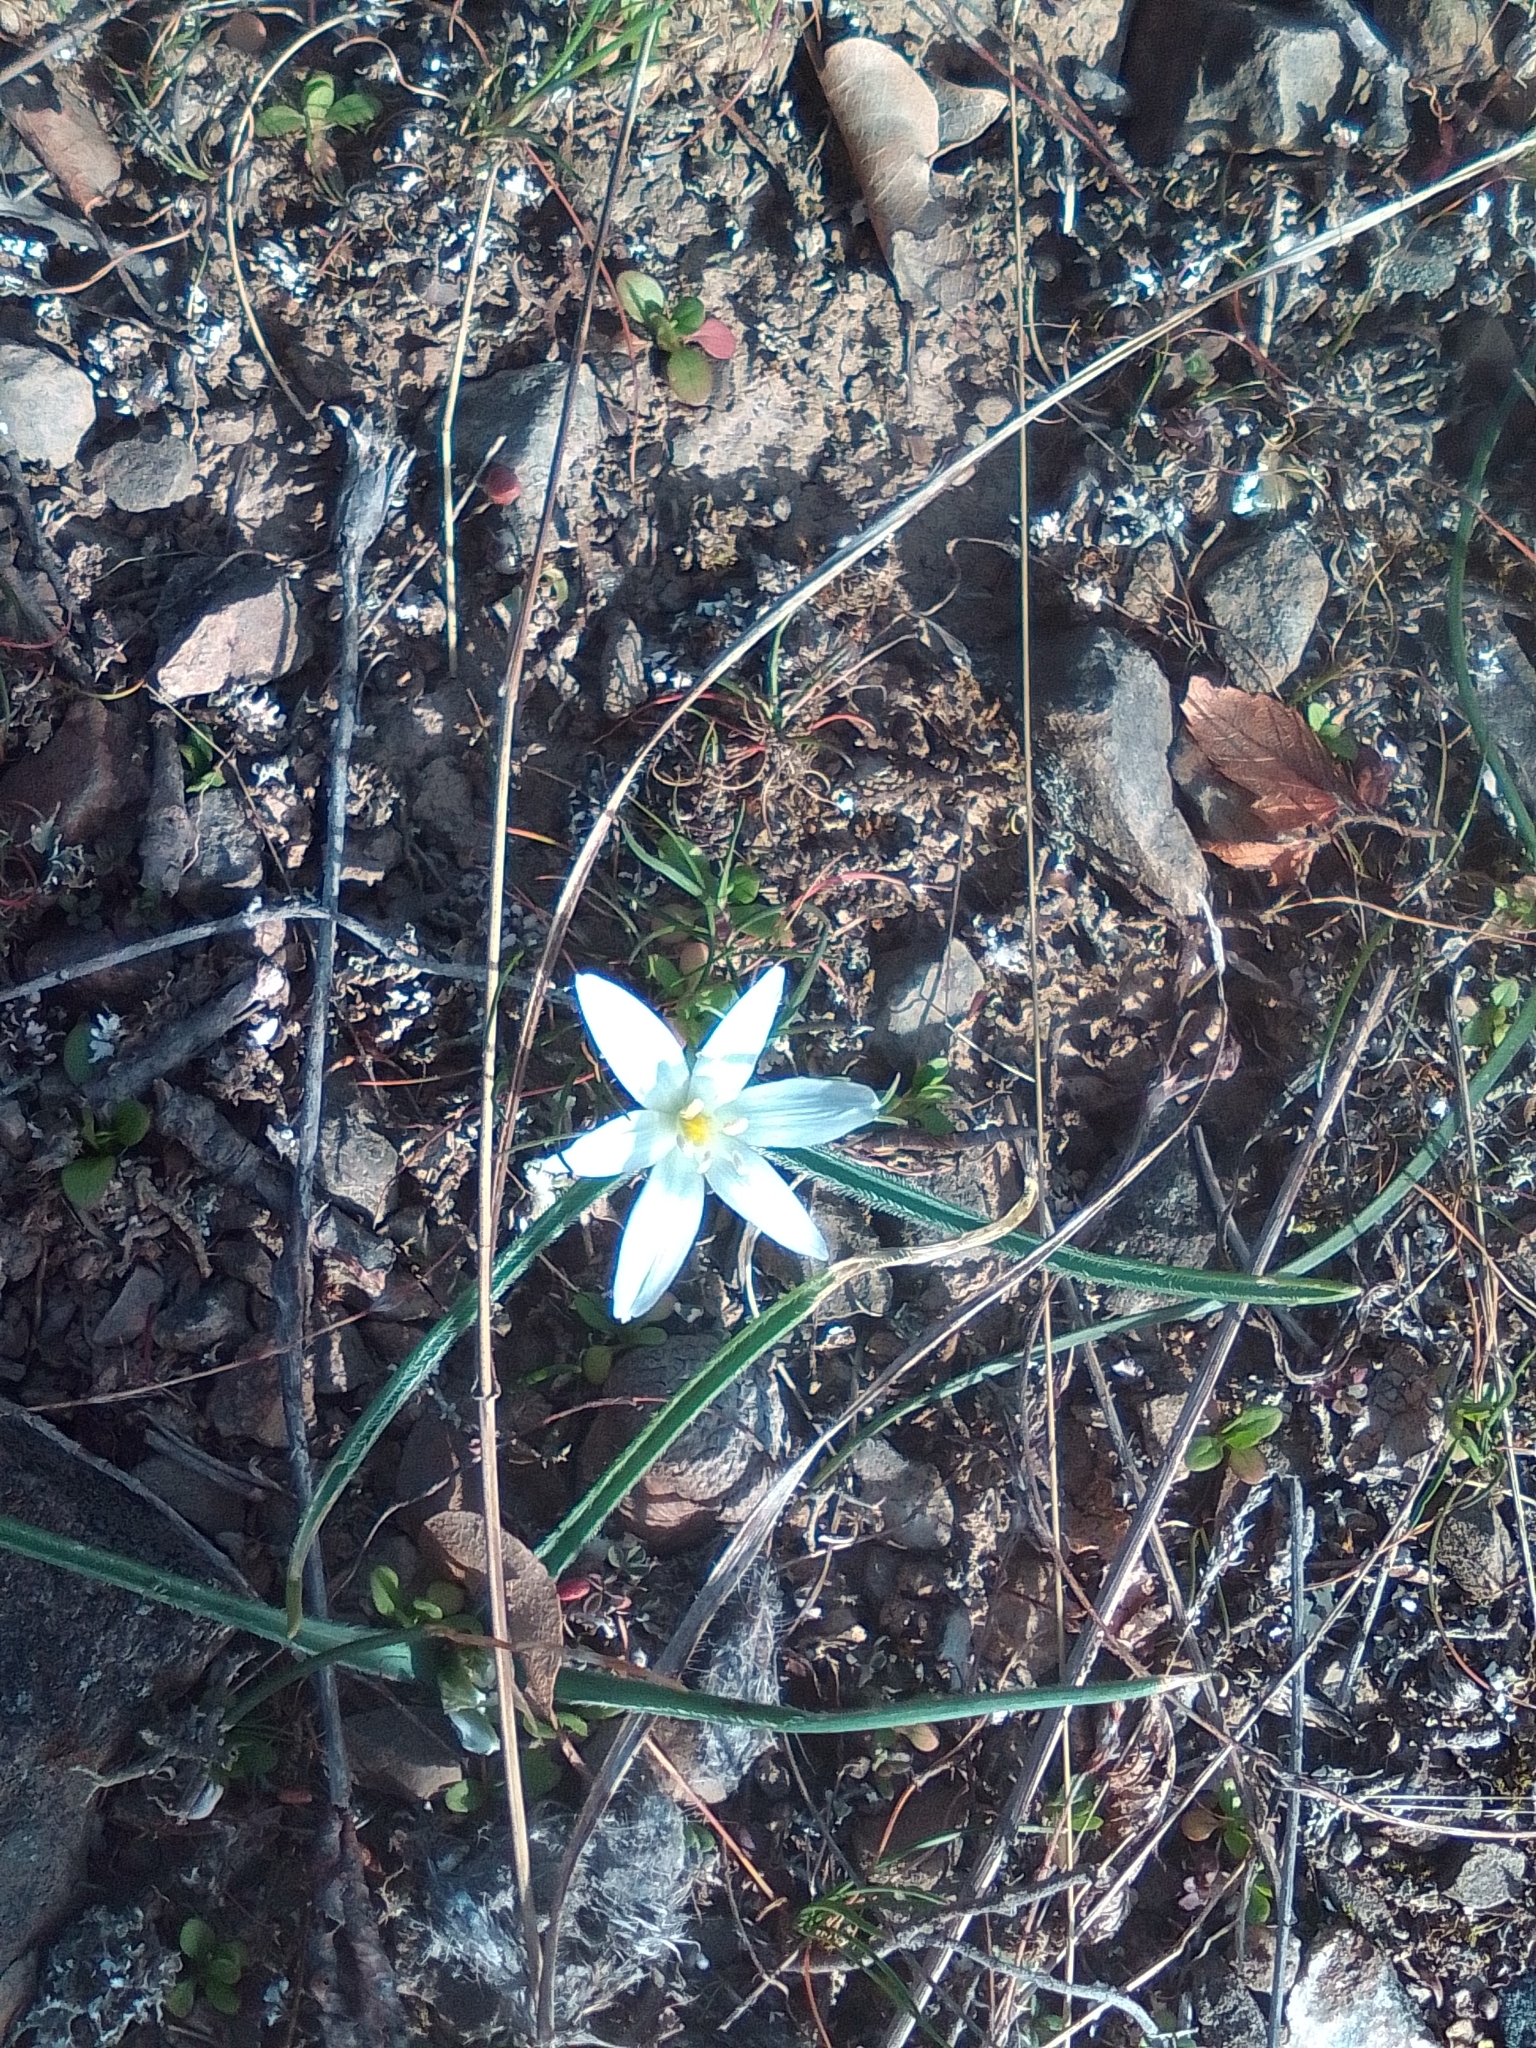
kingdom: Plantae
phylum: Tracheophyta
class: Liliopsida
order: Asparagales
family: Asparagaceae
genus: Ornithogalum
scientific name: Ornithogalum fimbriatum
